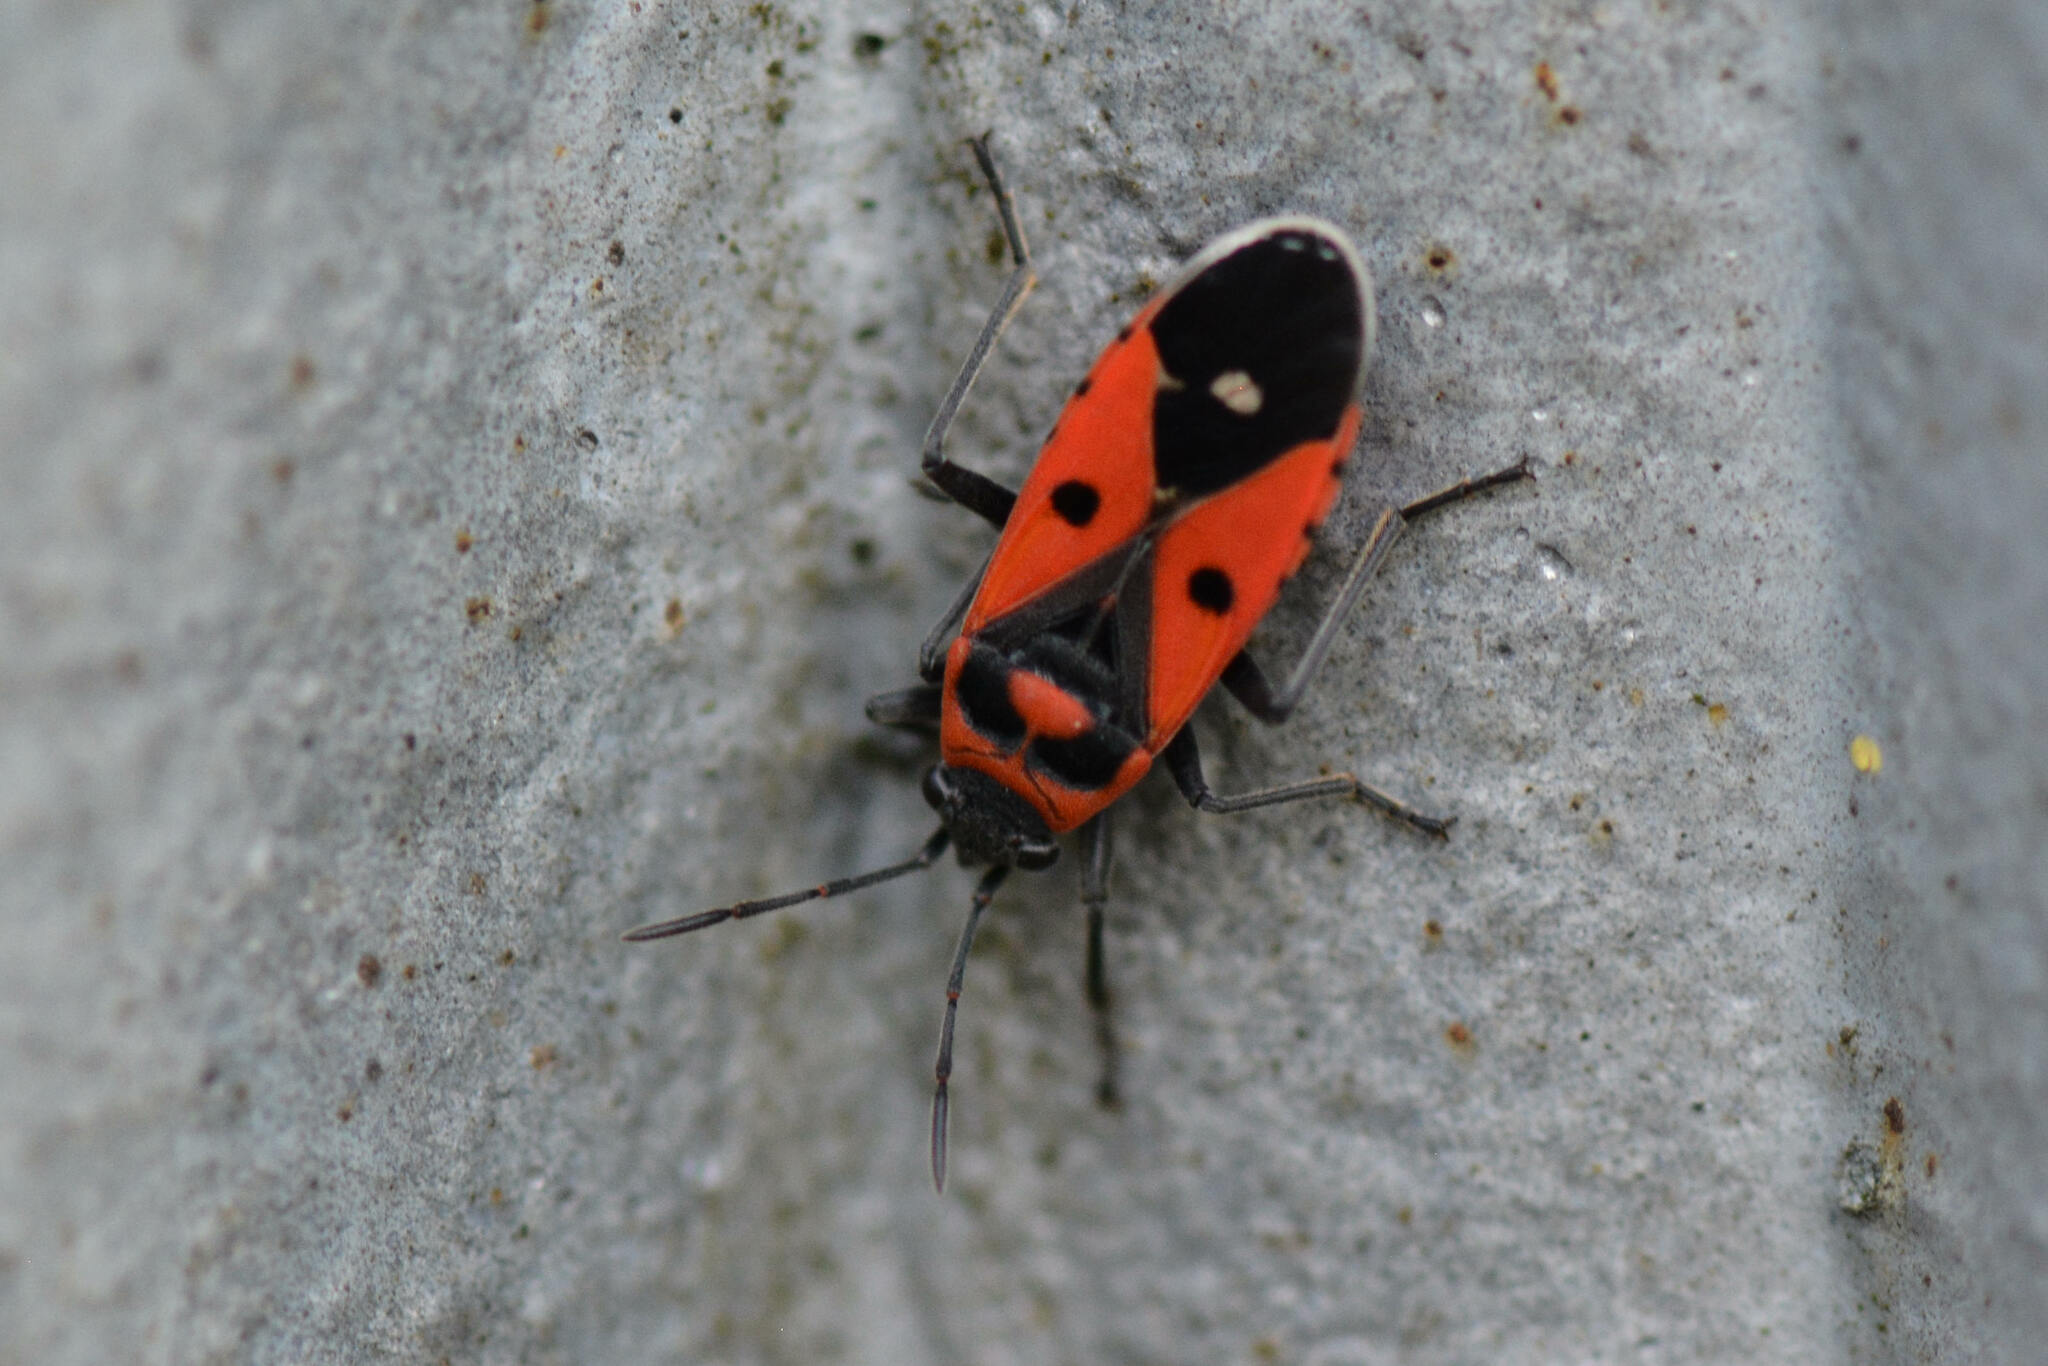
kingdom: Animalia
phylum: Arthropoda
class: Insecta
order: Hemiptera
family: Lygaeidae
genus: Melanocoryphus
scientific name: Melanocoryphus albomaculatus
